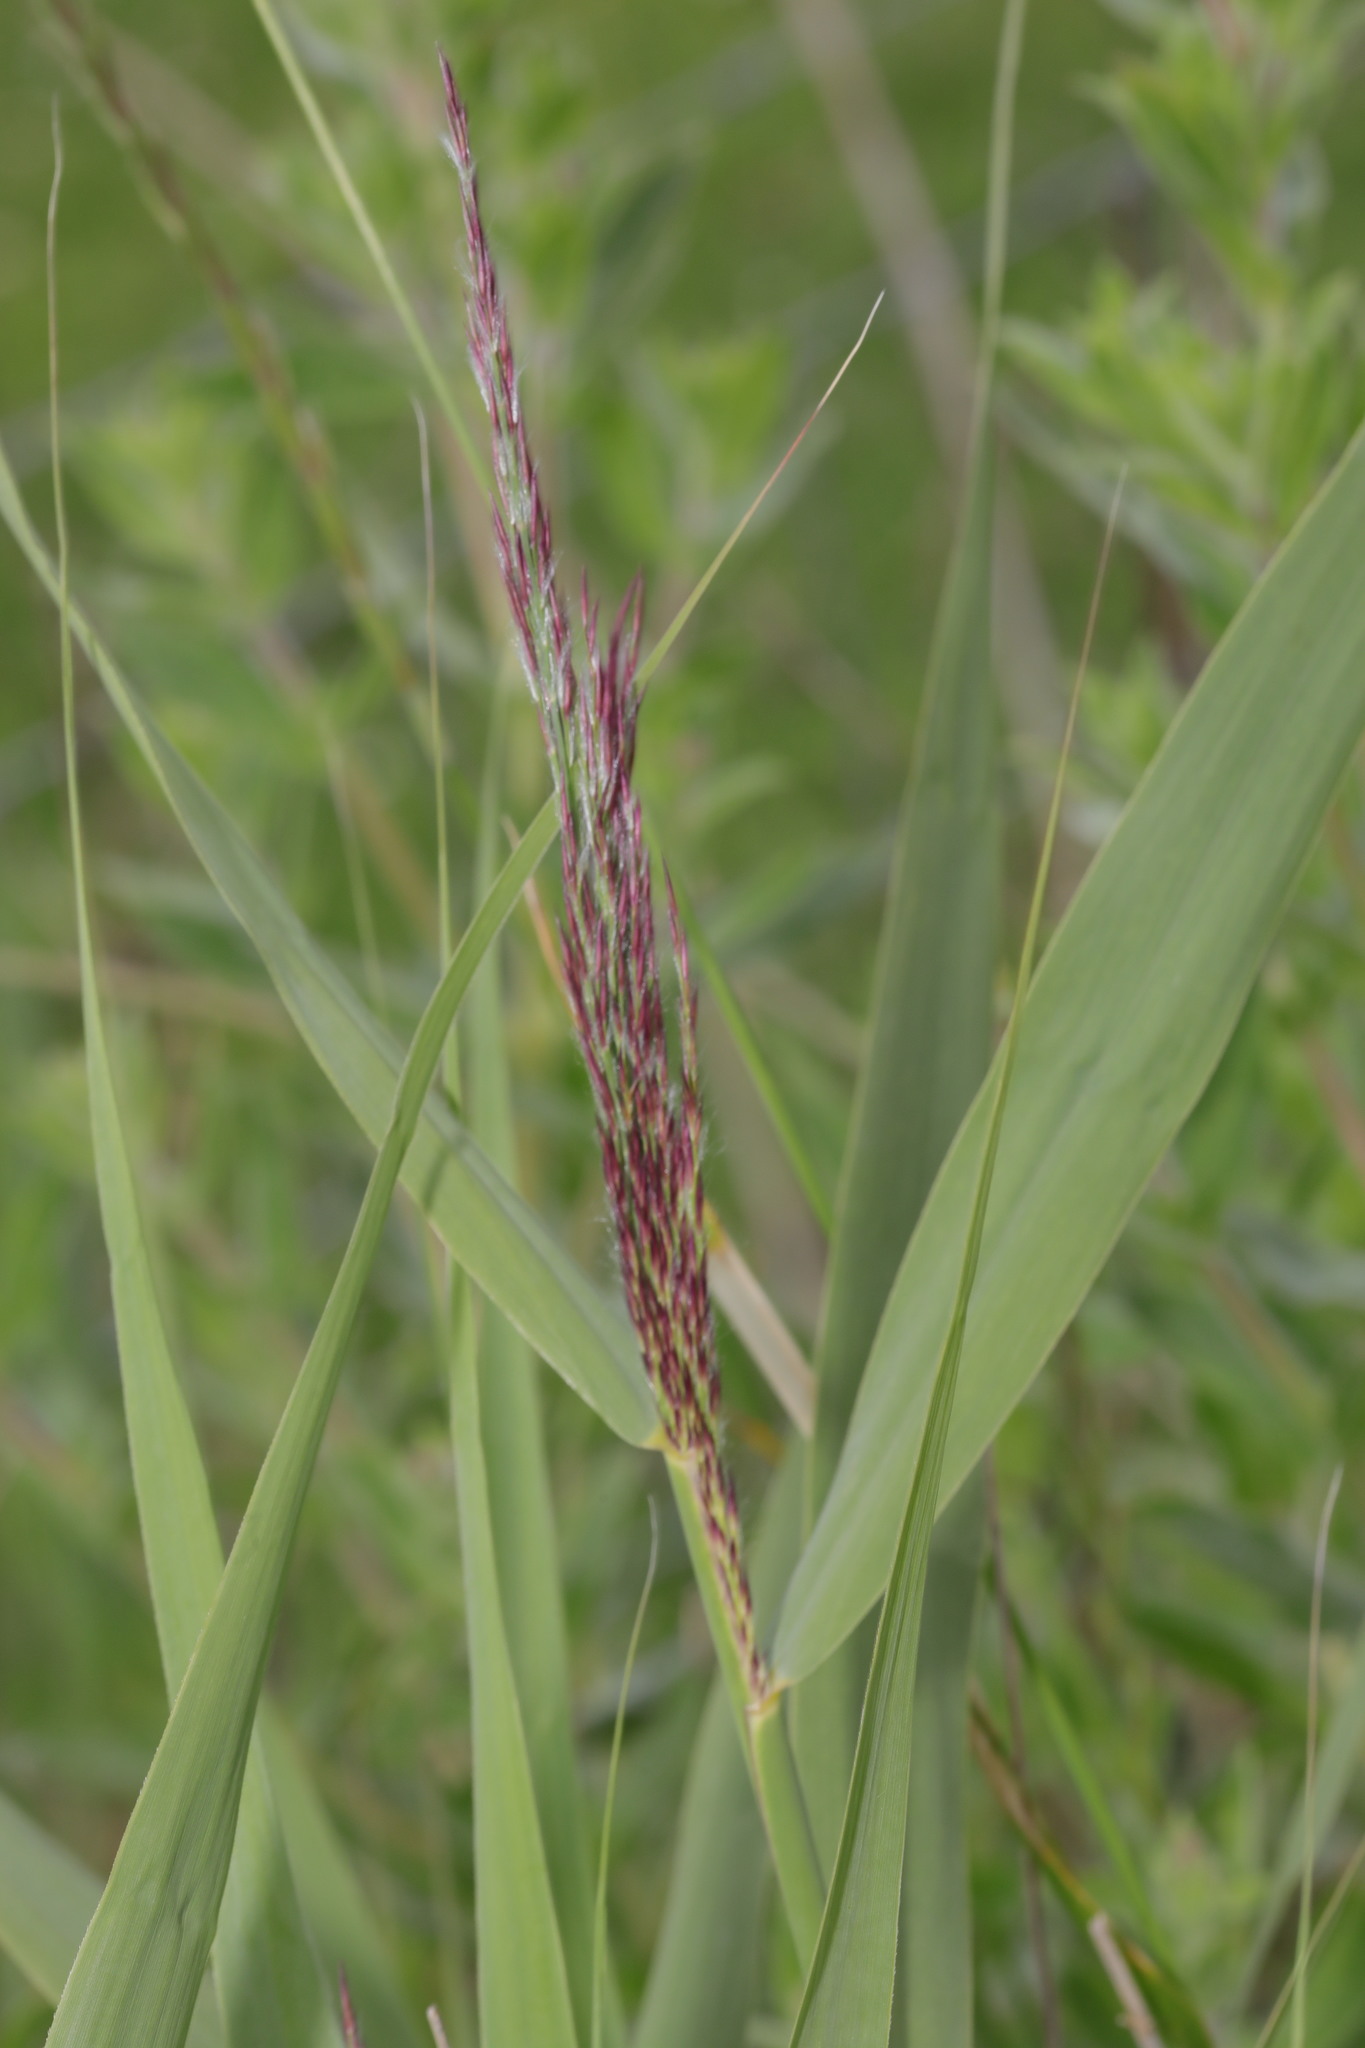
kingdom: Plantae
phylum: Tracheophyta
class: Liliopsida
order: Poales
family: Poaceae
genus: Phragmites
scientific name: Phragmites australis
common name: Common reed
